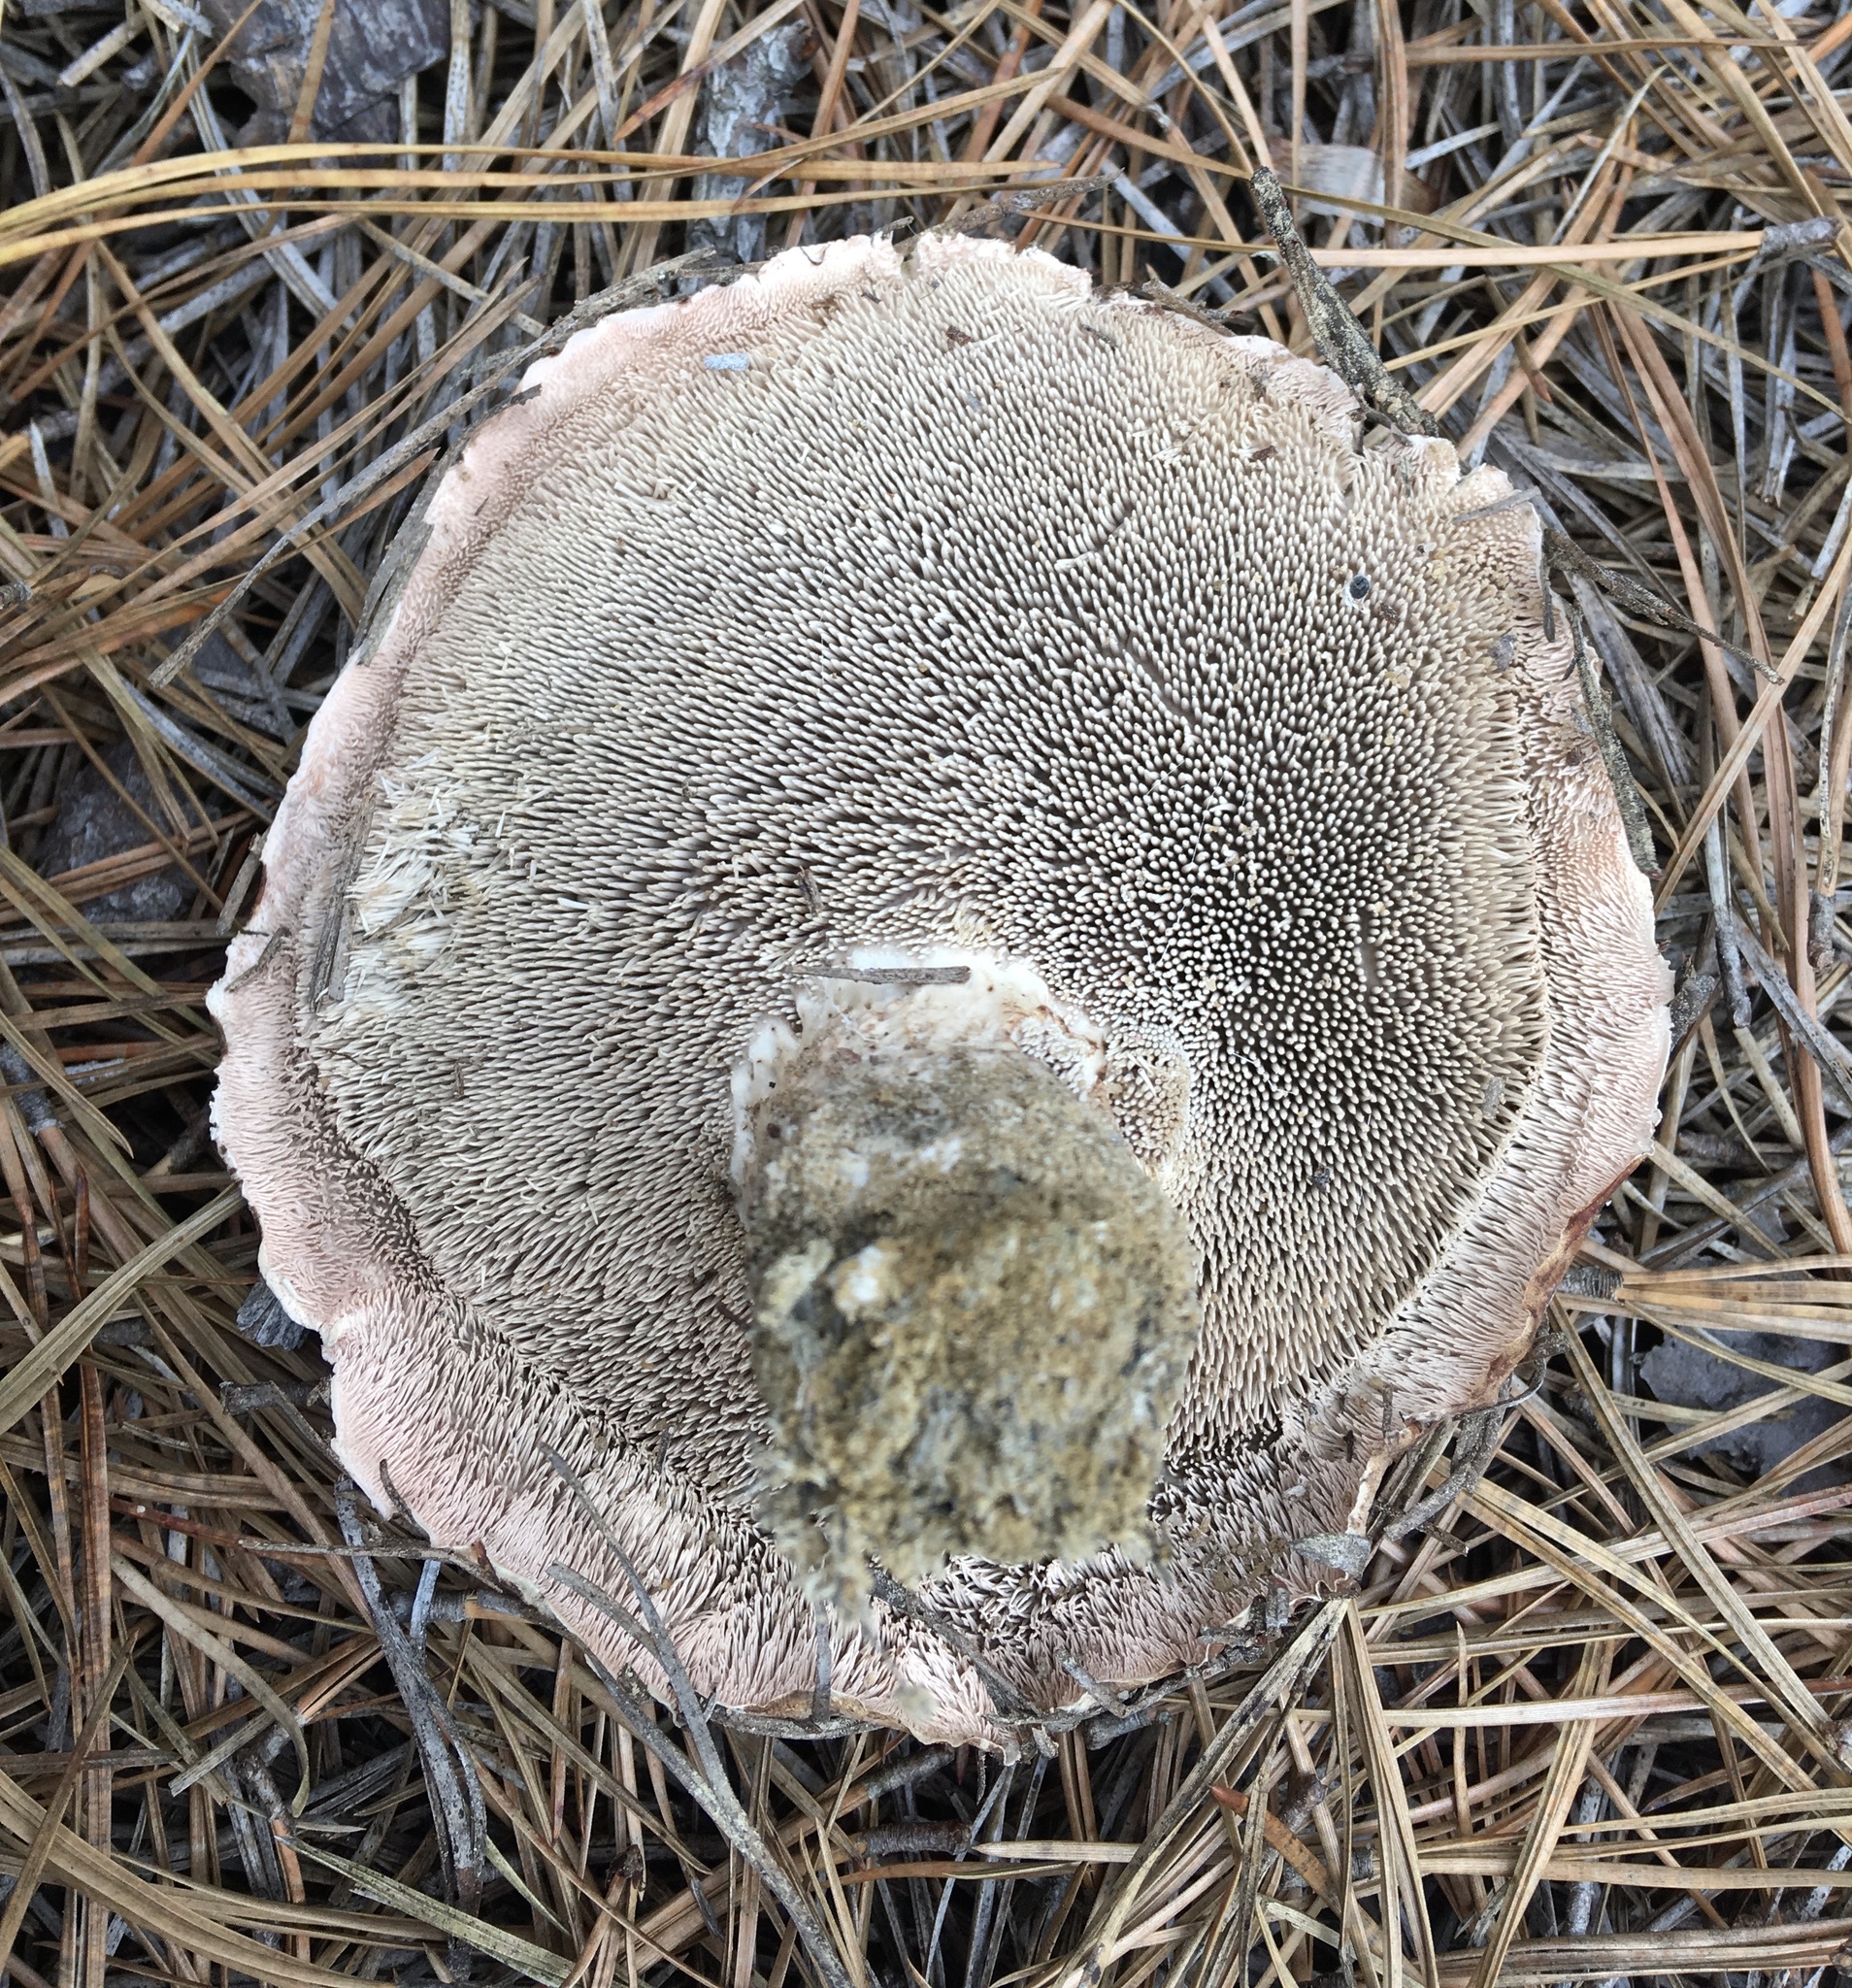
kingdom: Fungi
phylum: Basidiomycota
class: Agaricomycetes
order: Thelephorales
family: Thelephoraceae
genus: Phellodon
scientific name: Phellodon fuligineoalbus
